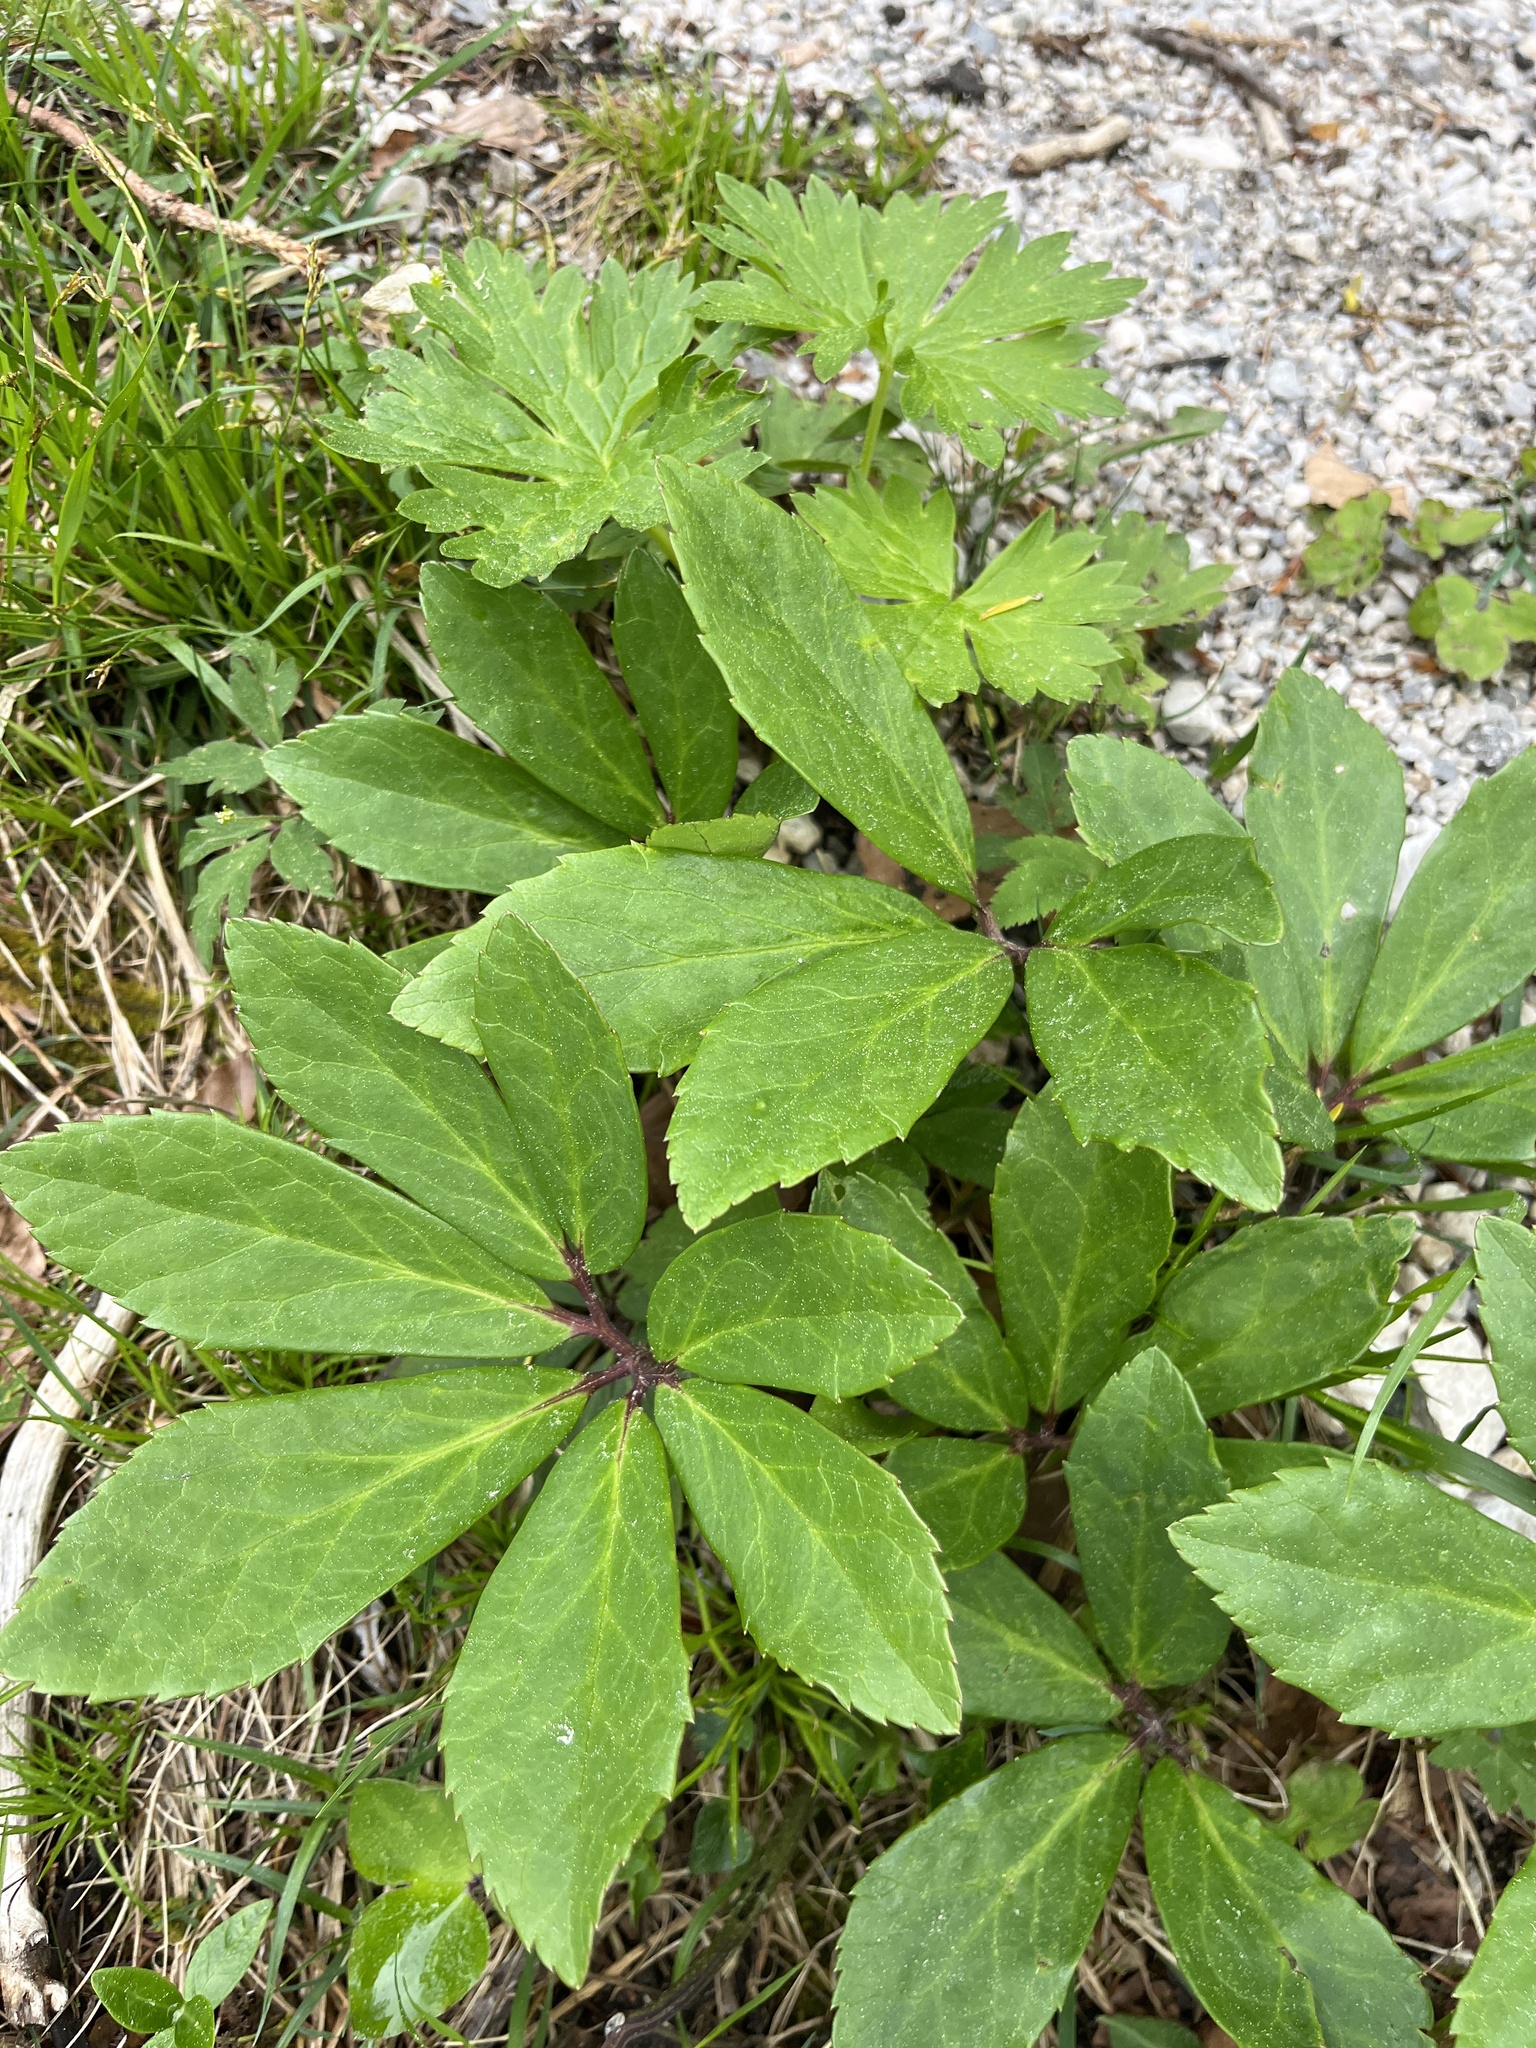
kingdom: Plantae
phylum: Tracheophyta
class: Magnoliopsida
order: Ranunculales
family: Ranunculaceae
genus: Helleborus
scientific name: Helleborus niger
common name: Black hellebore
